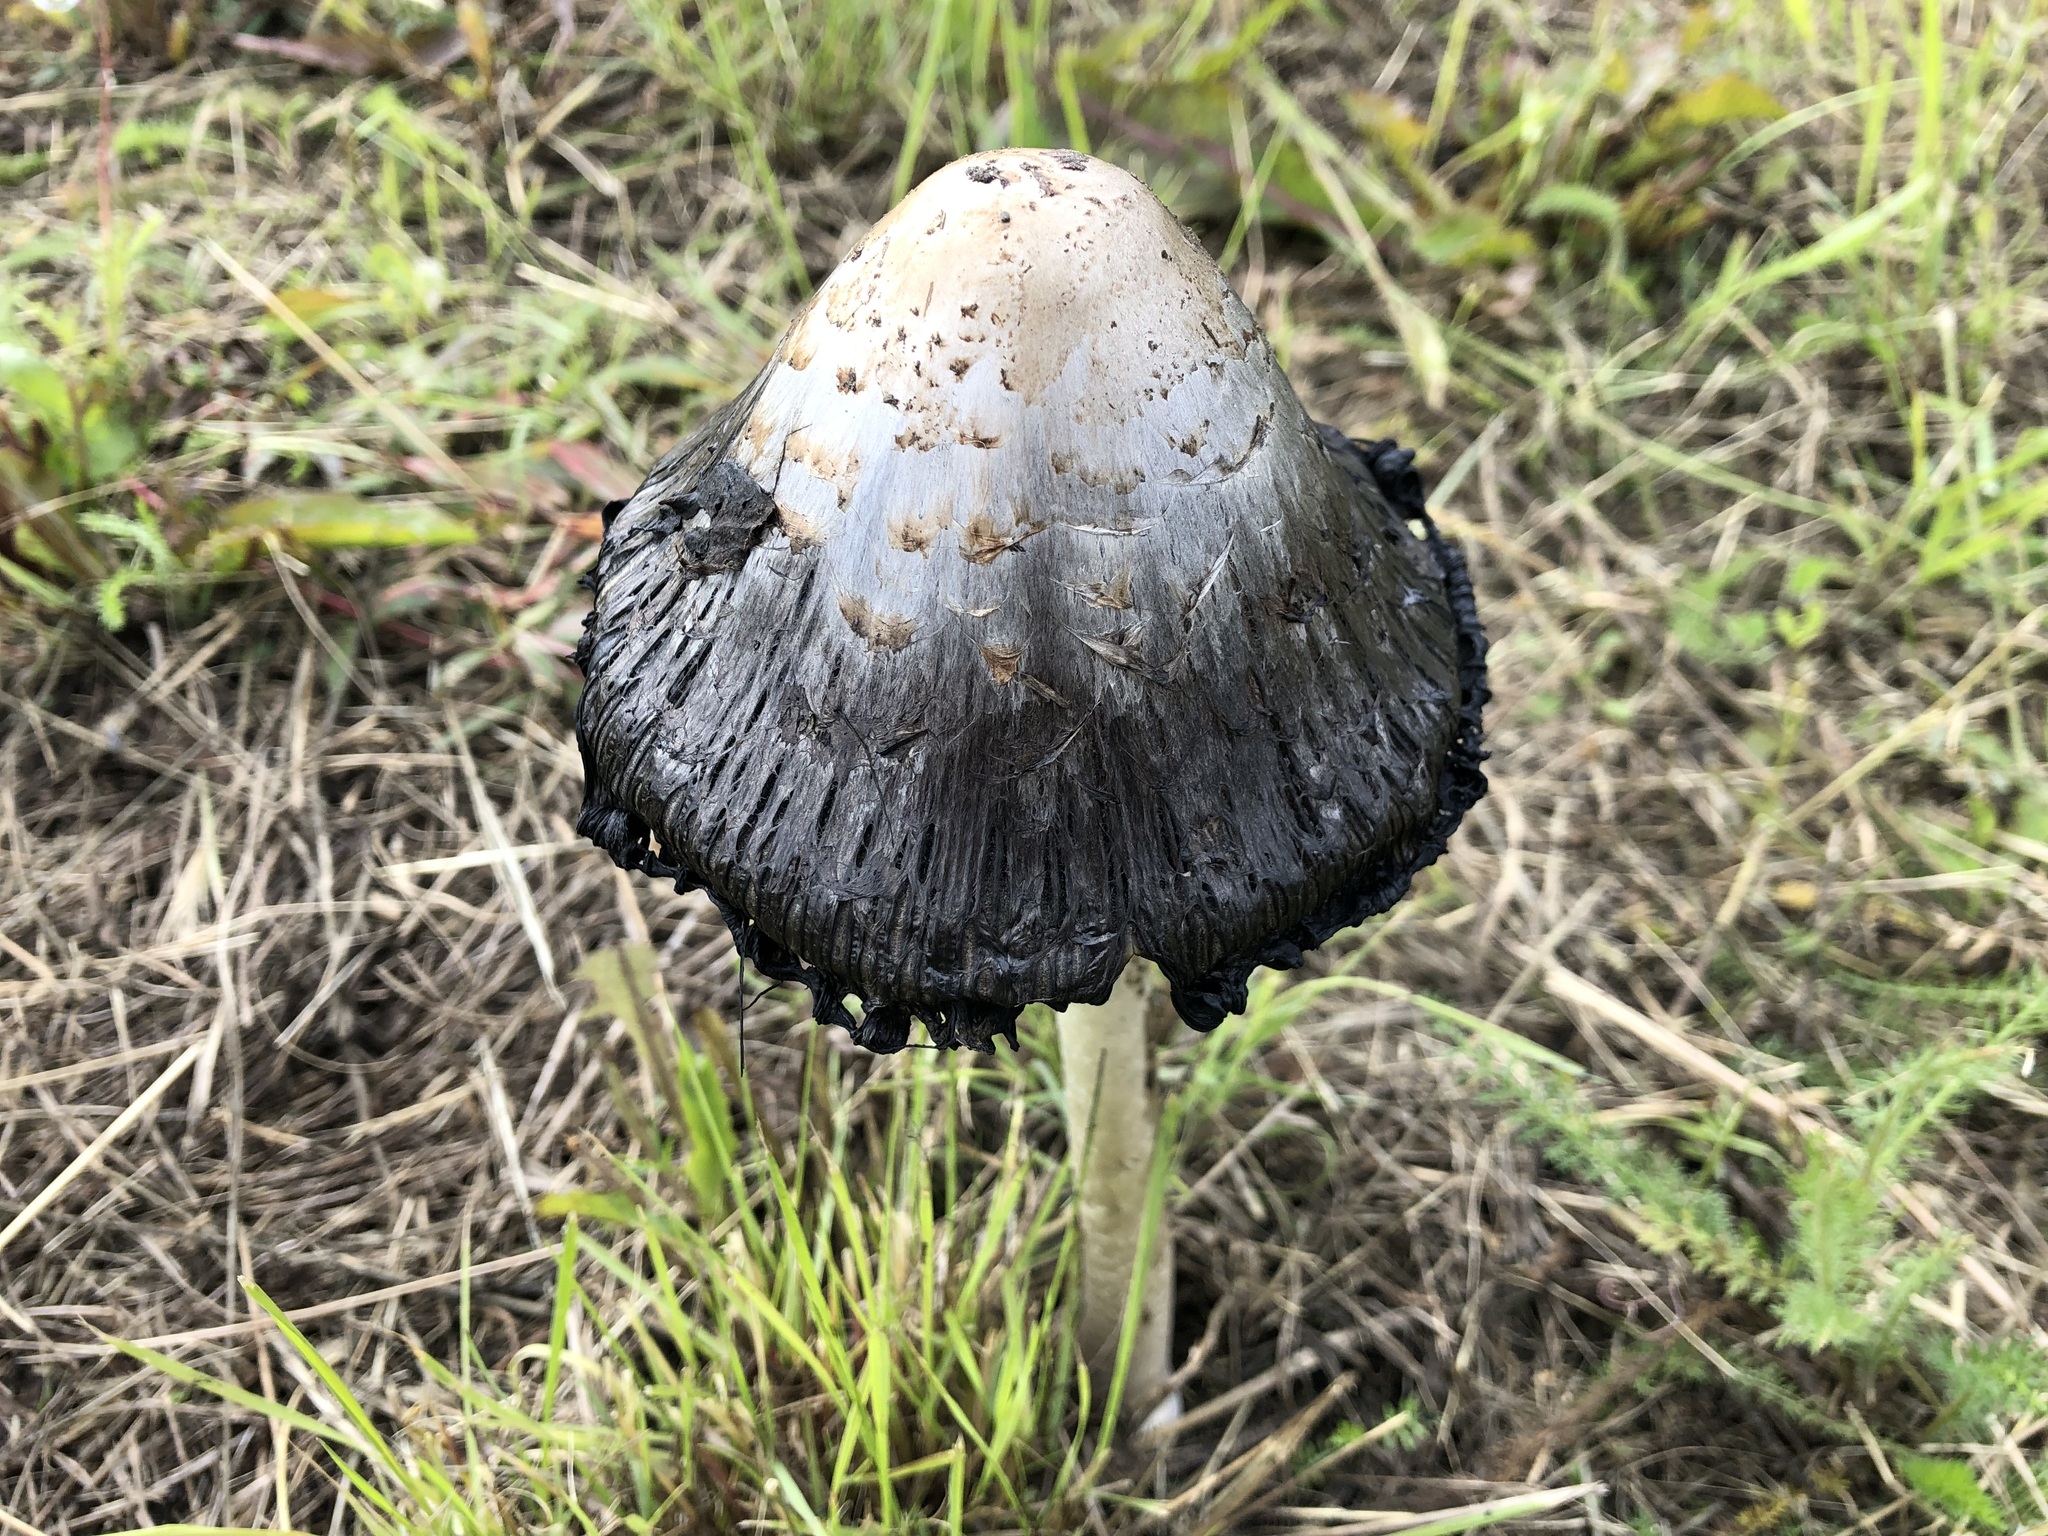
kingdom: Fungi
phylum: Basidiomycota
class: Agaricomycetes
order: Agaricales
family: Agaricaceae
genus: Coprinus
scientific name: Coprinus comatus
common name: Lawyer's wig
